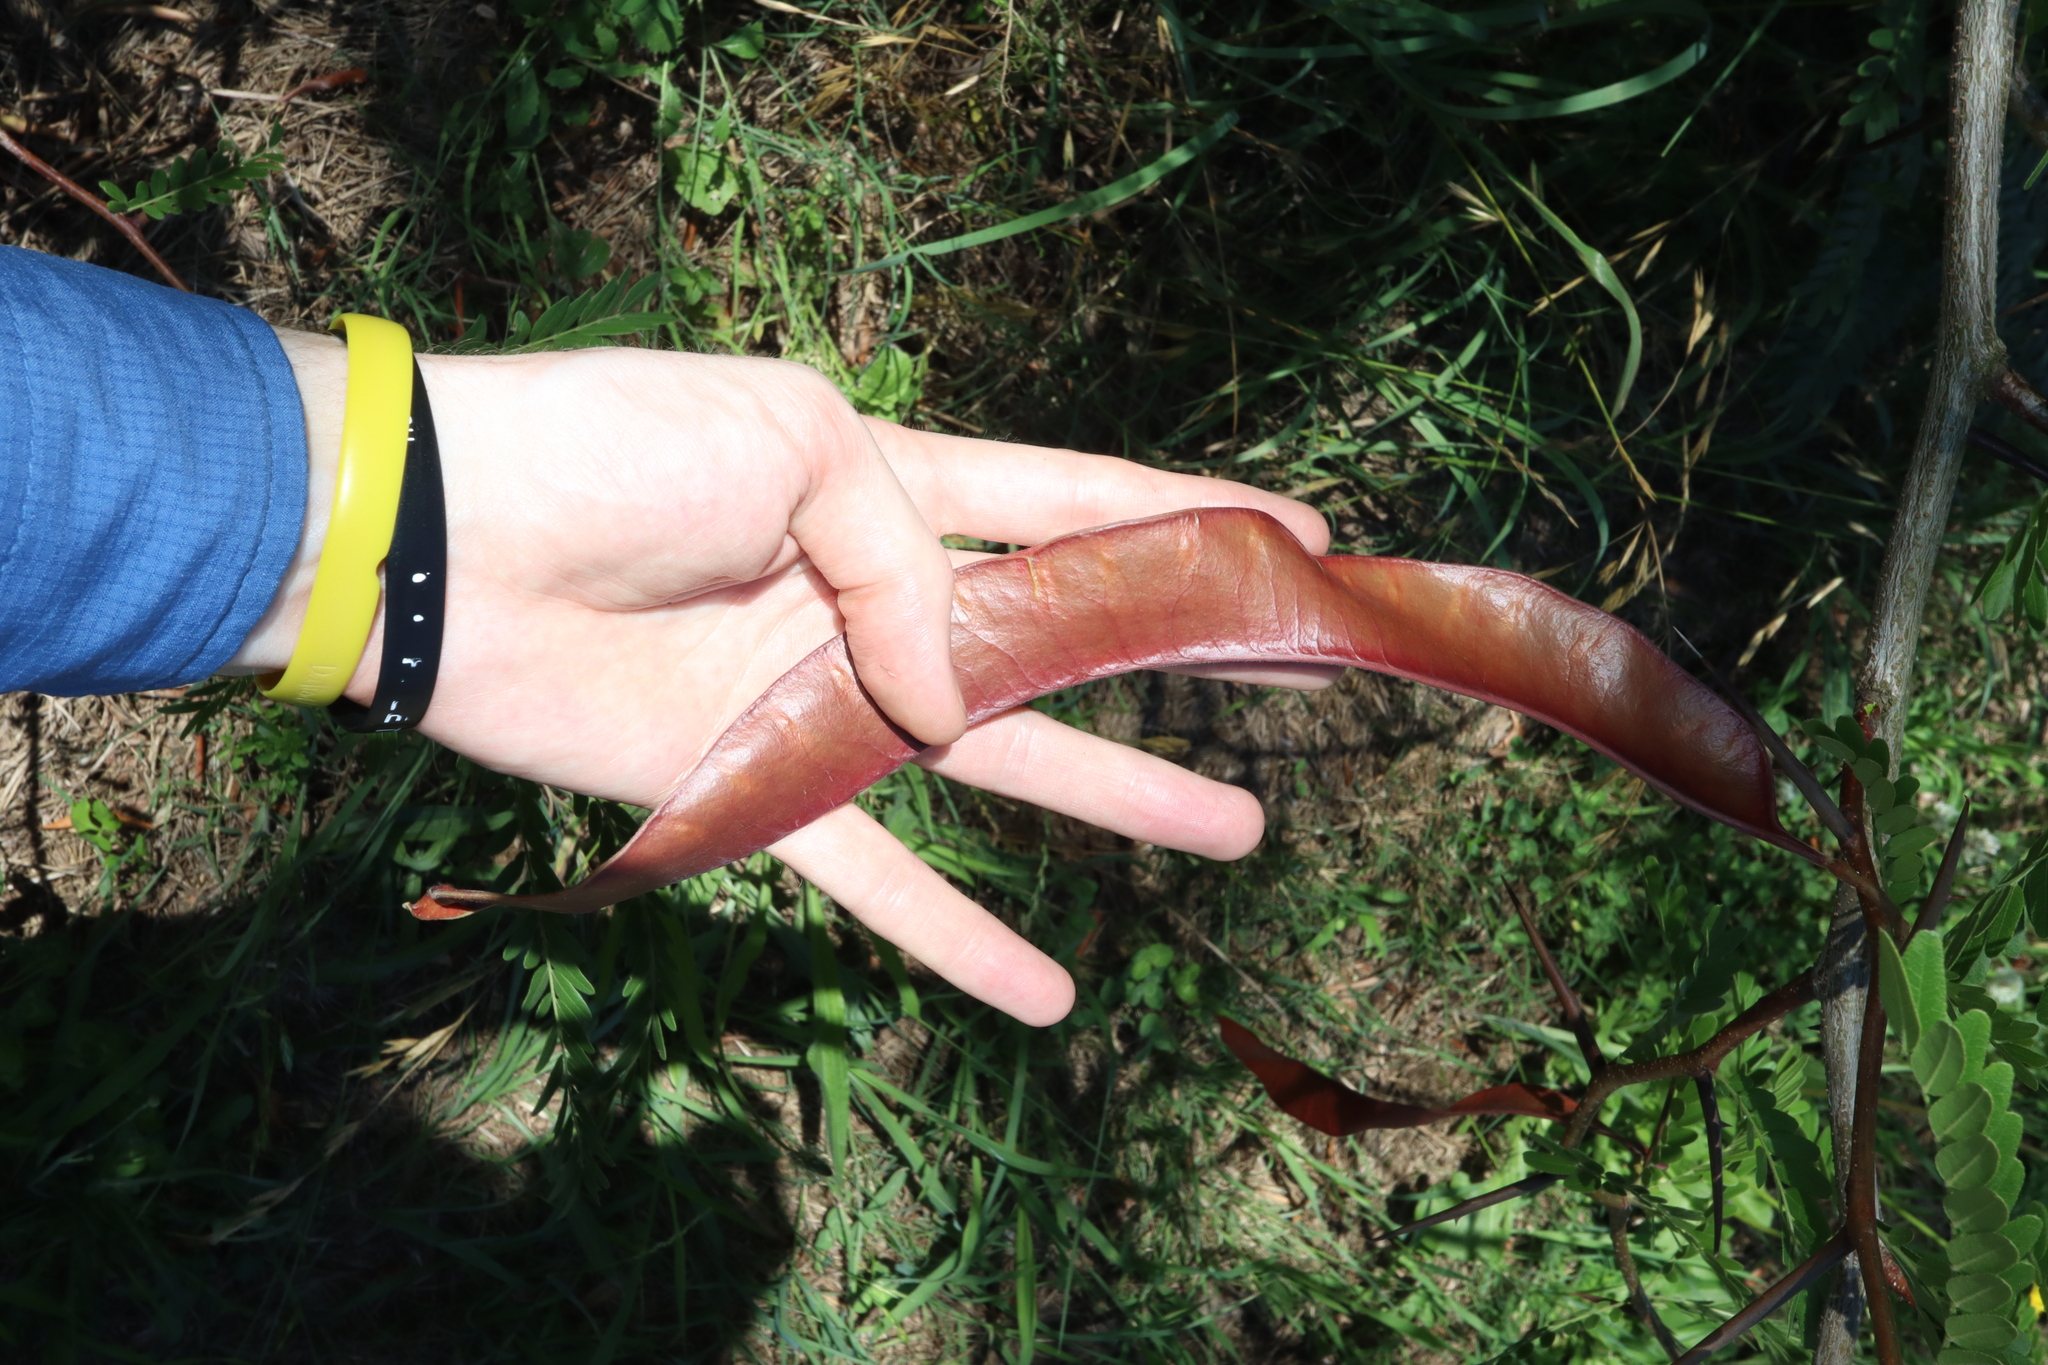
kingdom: Plantae
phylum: Tracheophyta
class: Magnoliopsida
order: Fabales
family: Fabaceae
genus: Gleditsia
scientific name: Gleditsia triacanthos
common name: Common honeylocust
